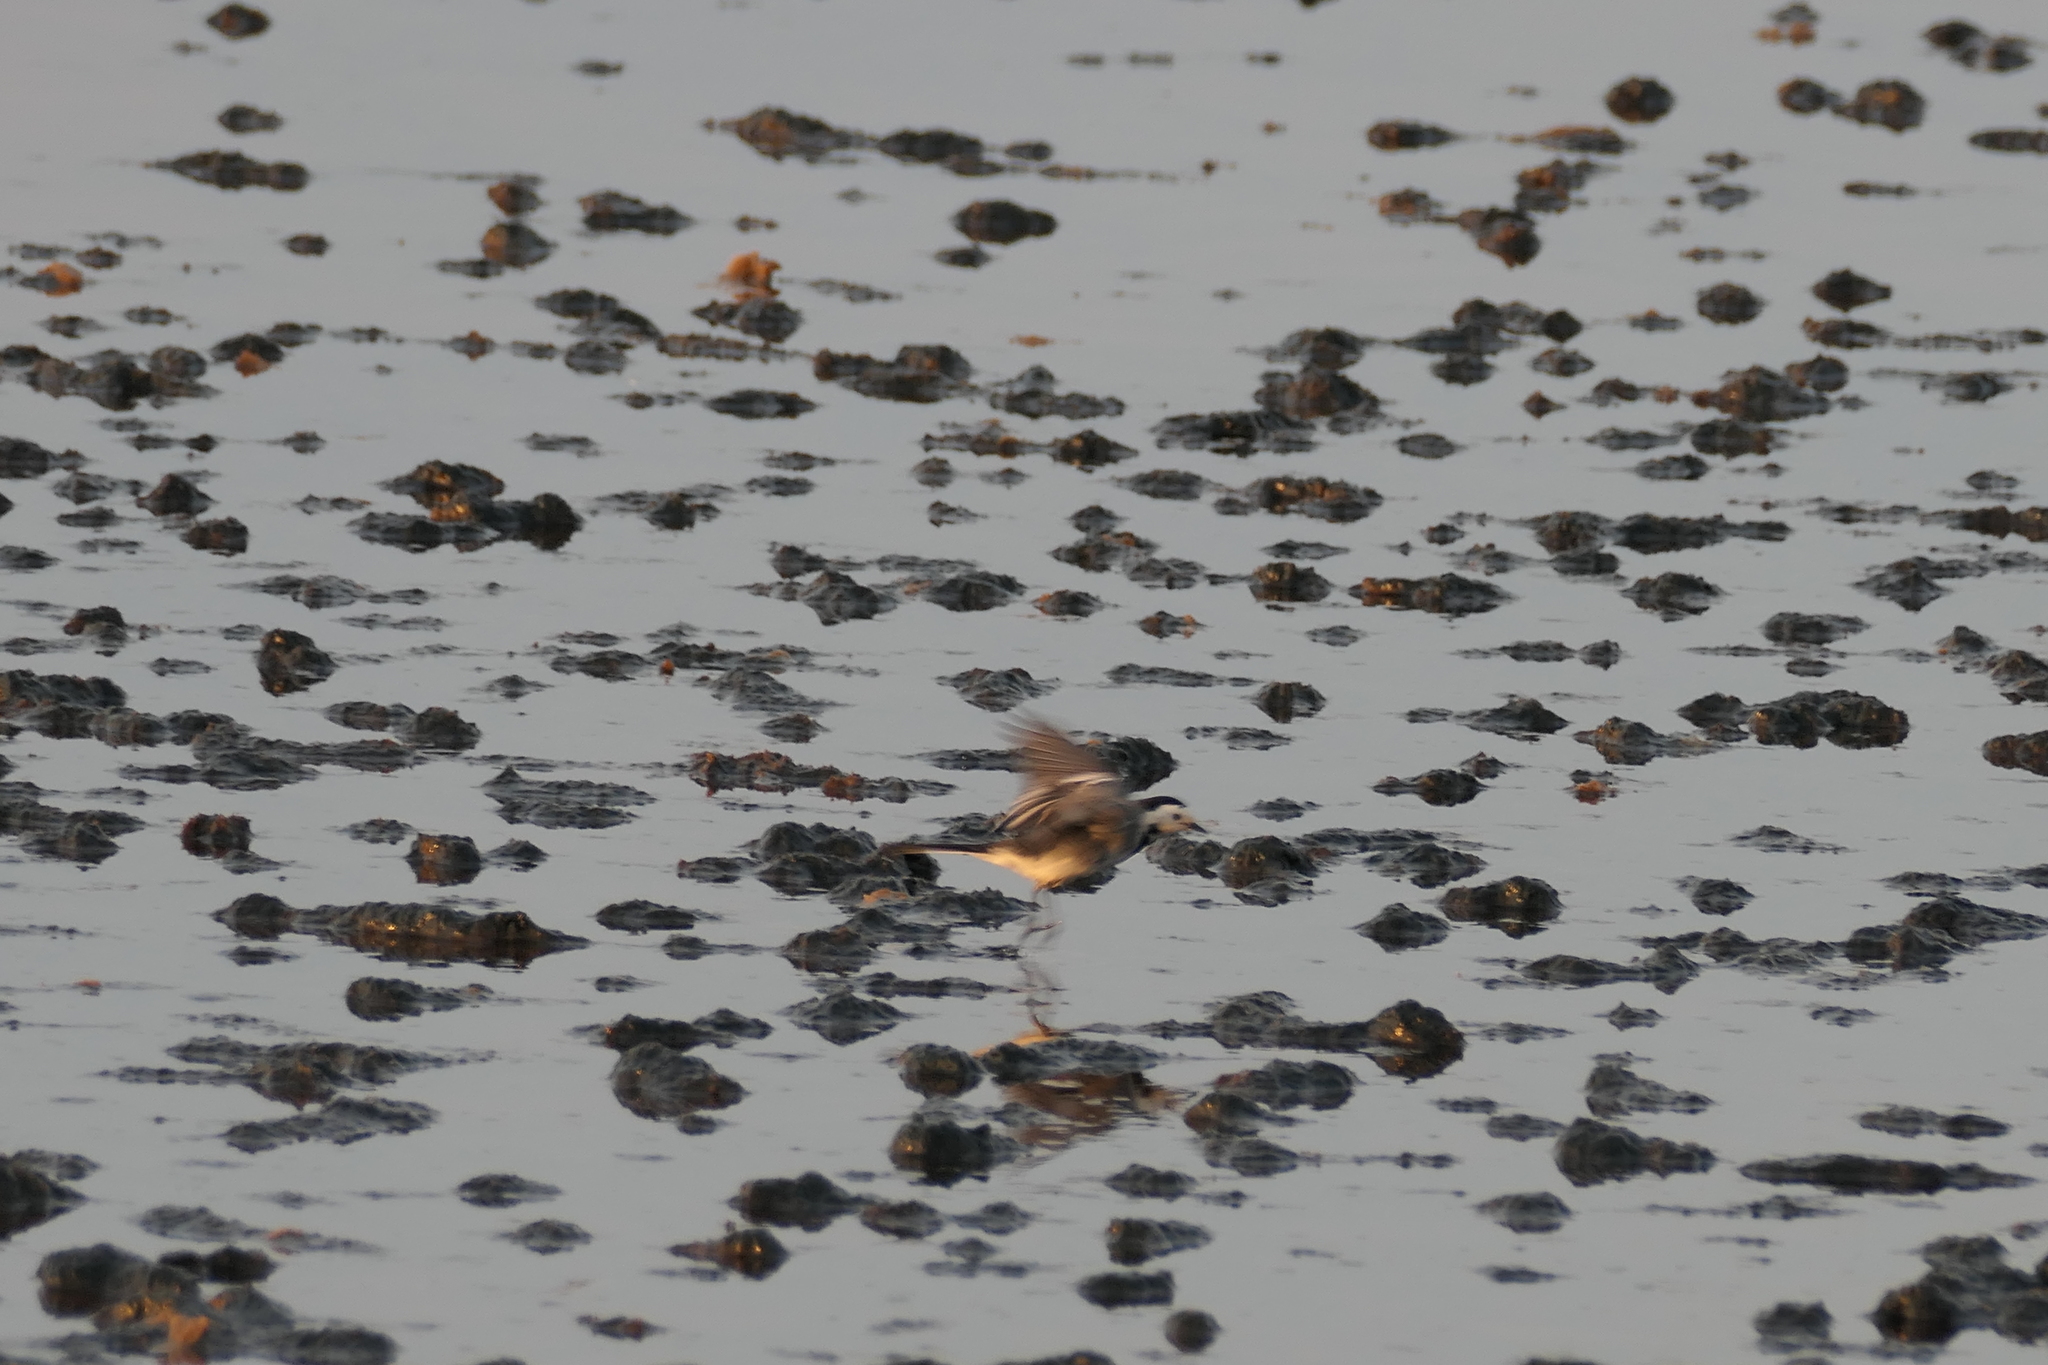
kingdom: Animalia
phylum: Chordata
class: Aves
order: Passeriformes
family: Motacillidae
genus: Motacilla
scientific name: Motacilla alba
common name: White wagtail
